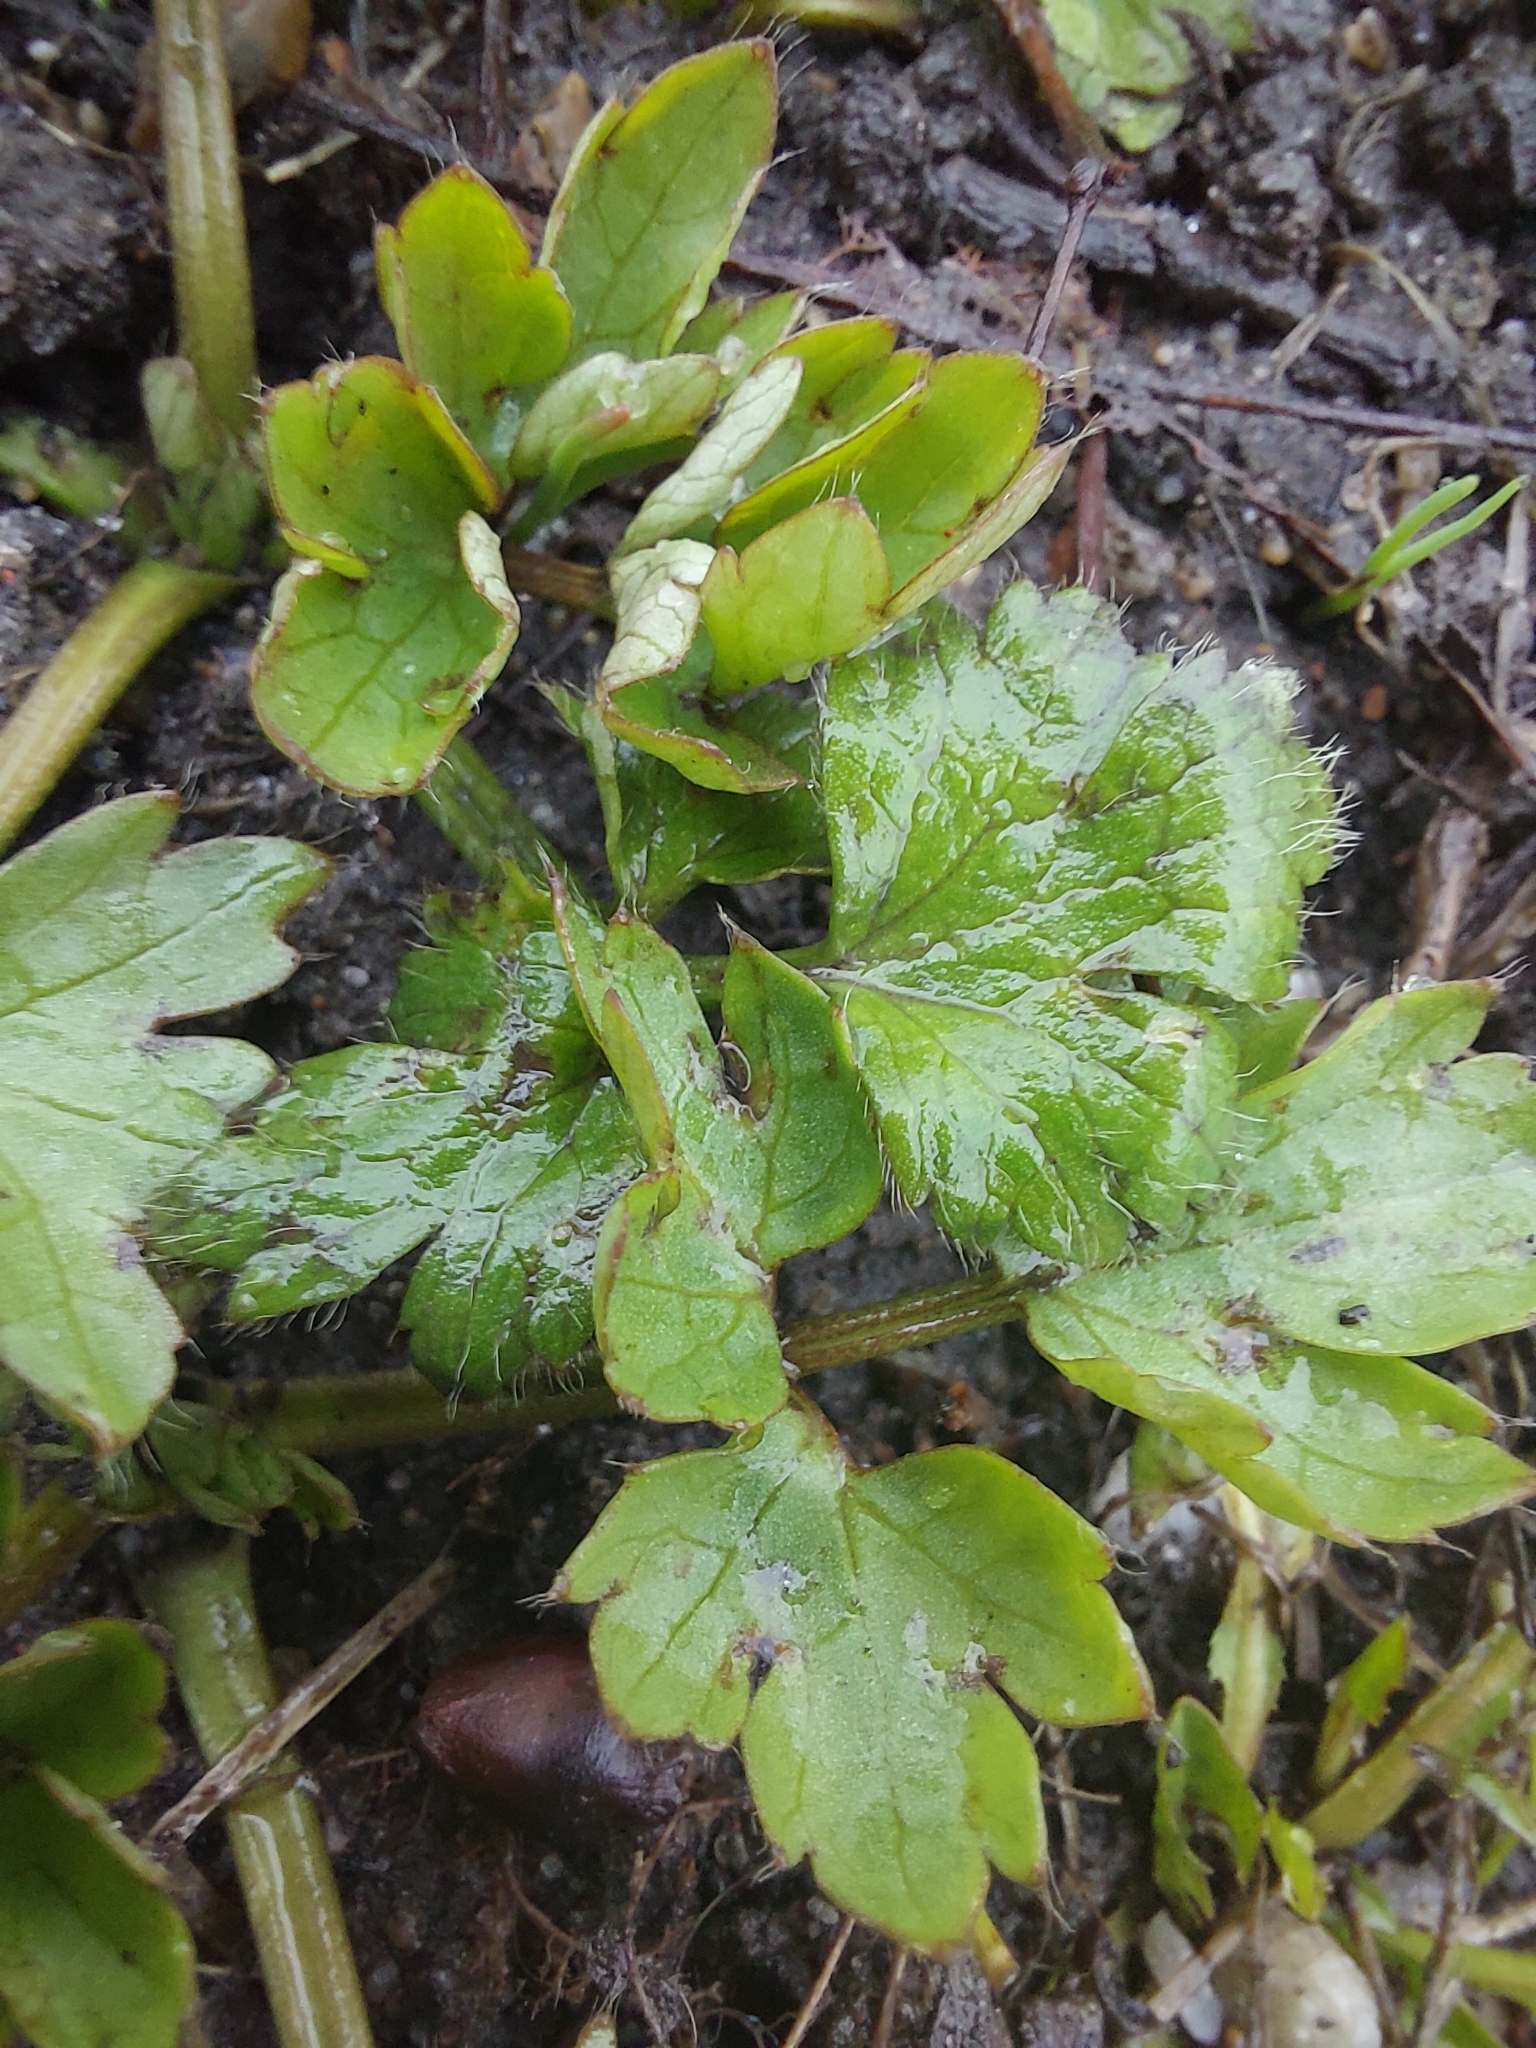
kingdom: Plantae
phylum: Tracheophyta
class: Magnoliopsida
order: Ranunculales
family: Ranunculaceae
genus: Ranunculus
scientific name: Ranunculus repens
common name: Creeping buttercup
